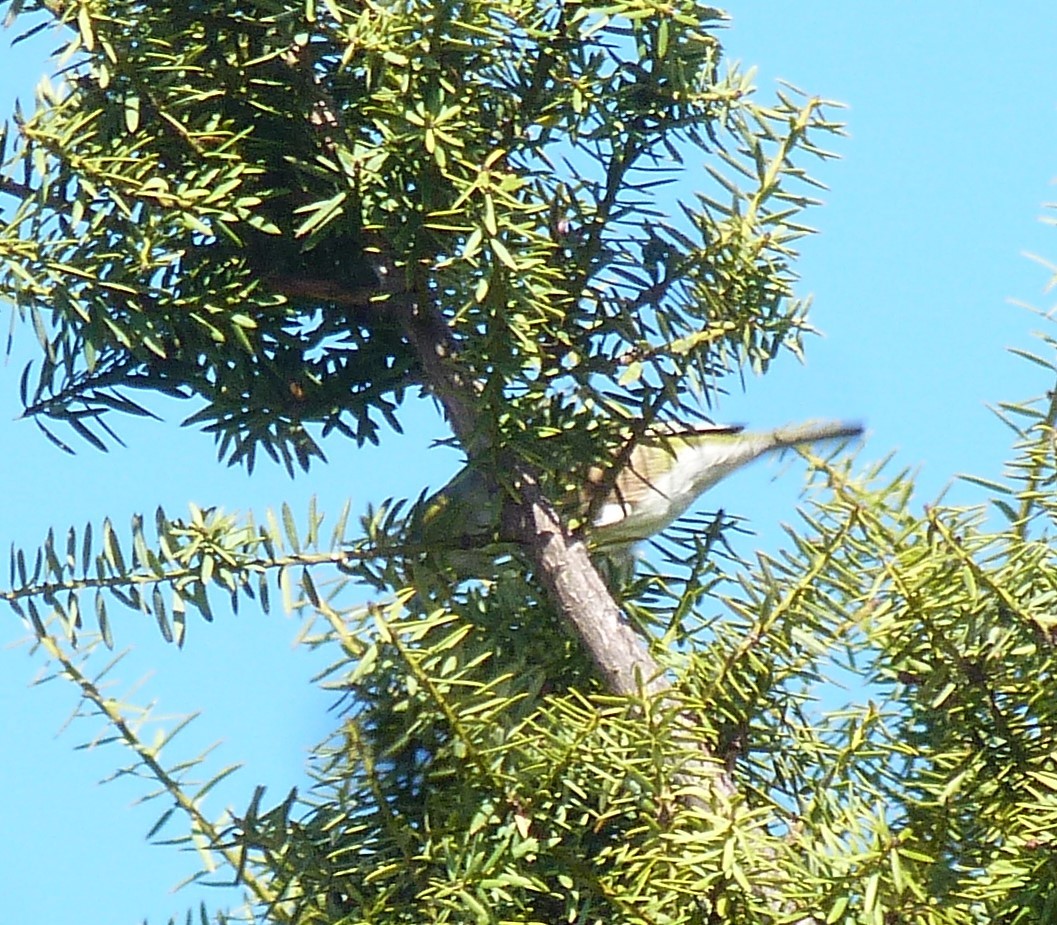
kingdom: Animalia
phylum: Chordata
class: Aves
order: Passeriformes
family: Zosteropidae
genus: Zosterops
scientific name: Zosterops lateralis
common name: Silvereye
